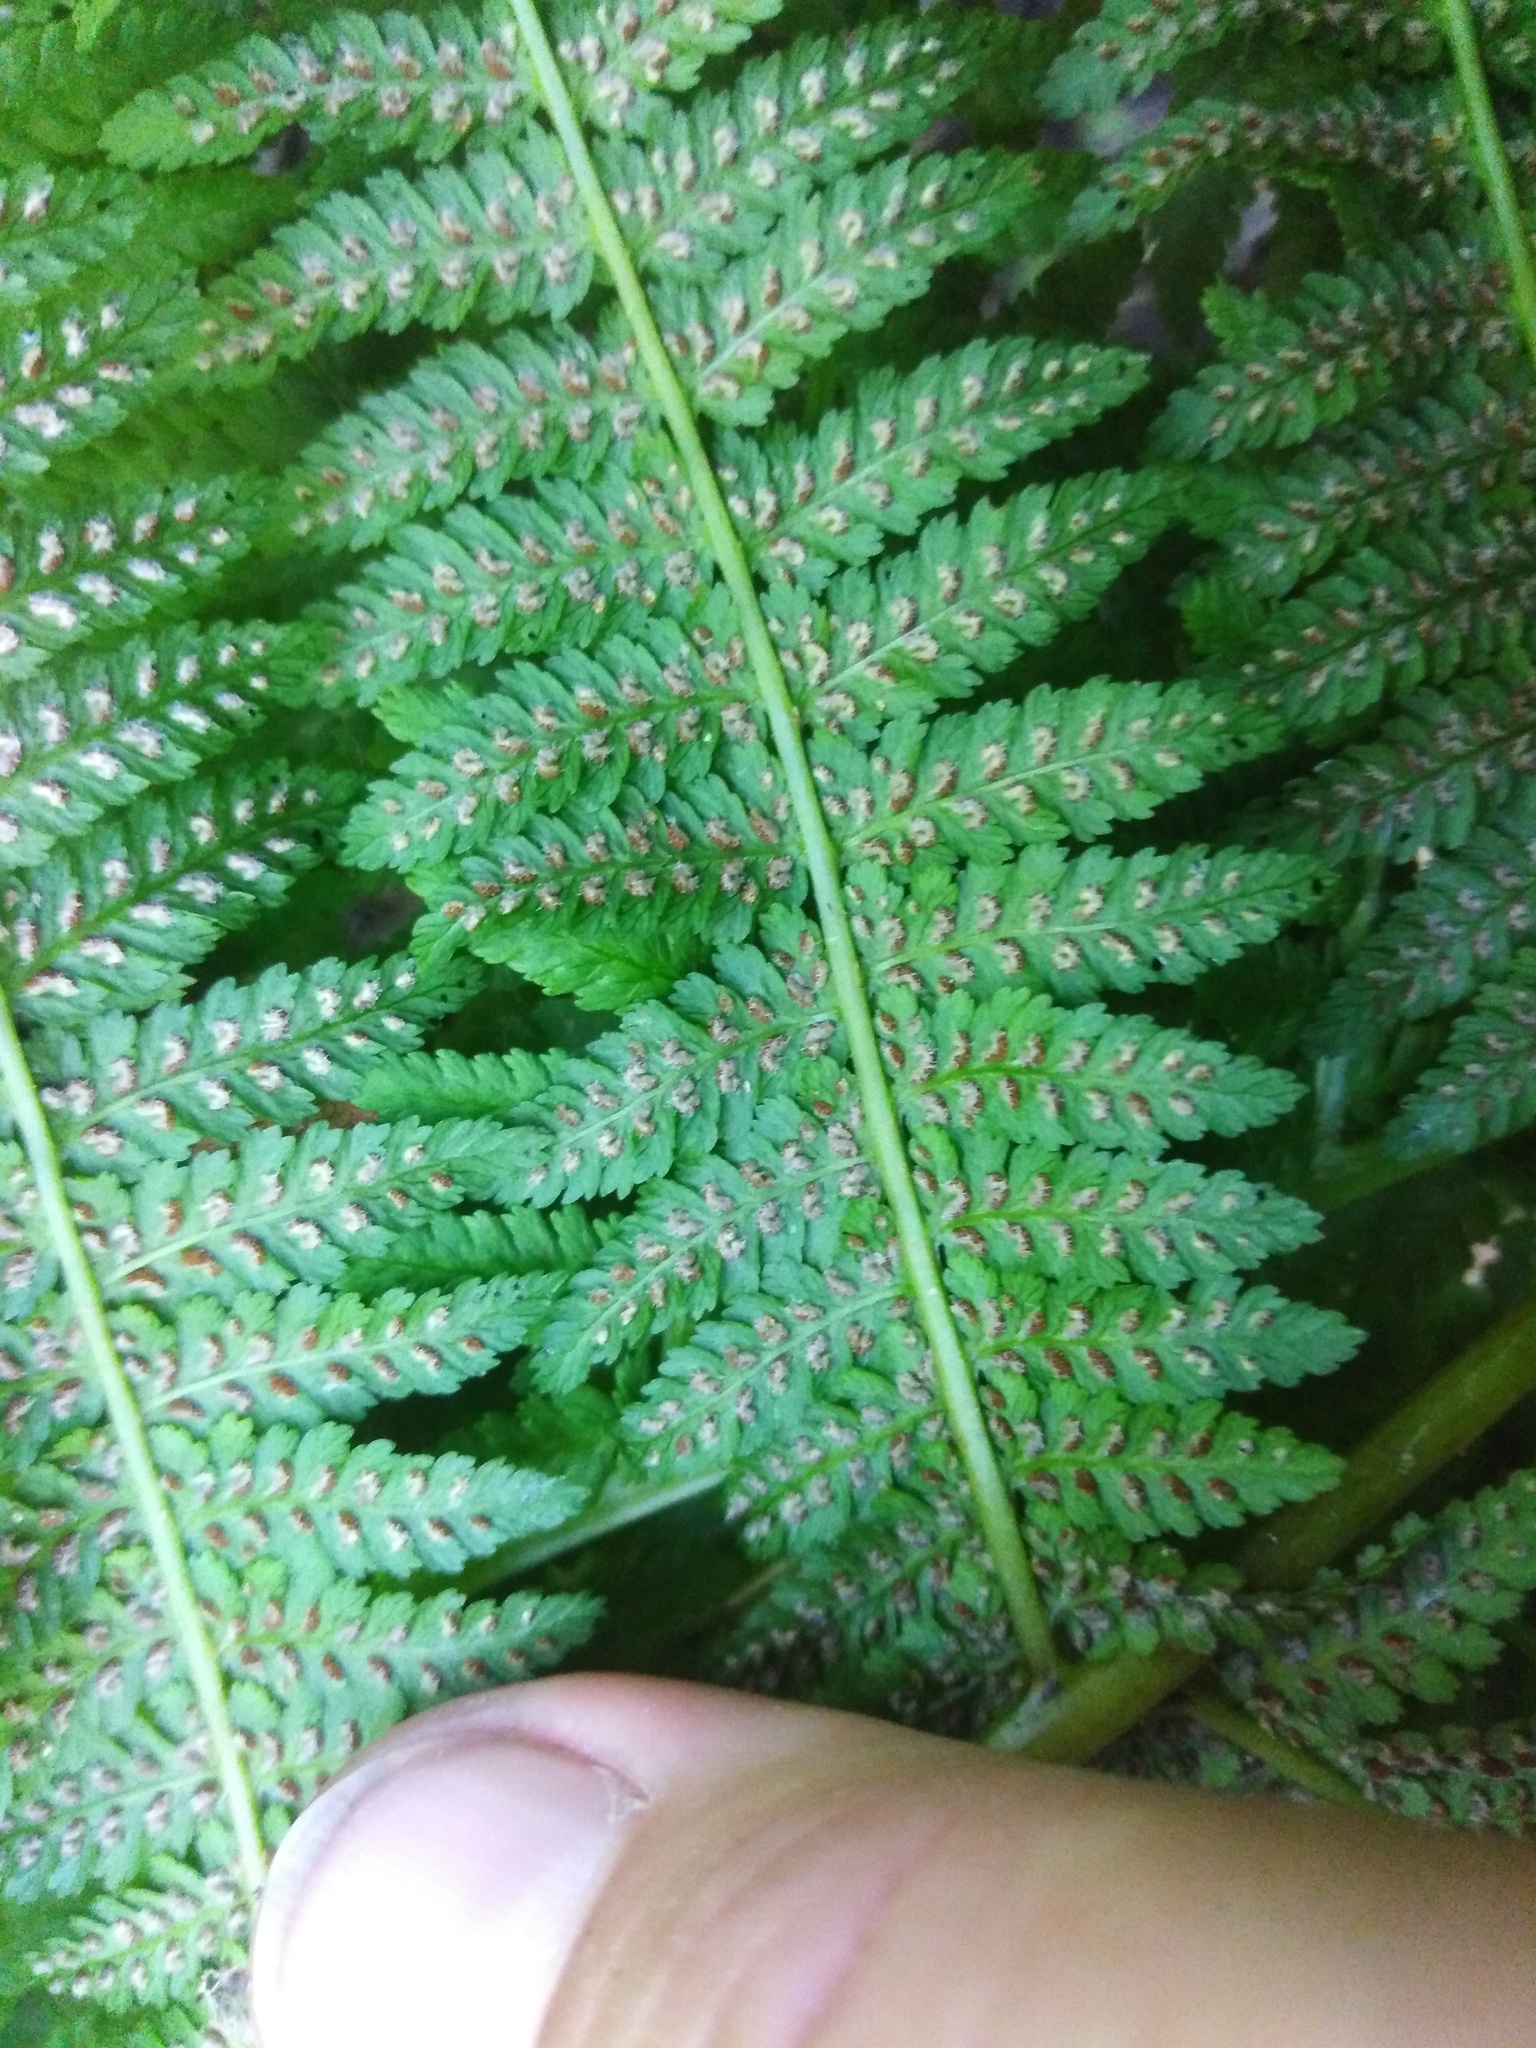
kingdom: Plantae
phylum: Tracheophyta
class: Polypodiopsida
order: Polypodiales
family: Athyriaceae
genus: Athyrium
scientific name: Athyrium filix-femina
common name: Lady fern
